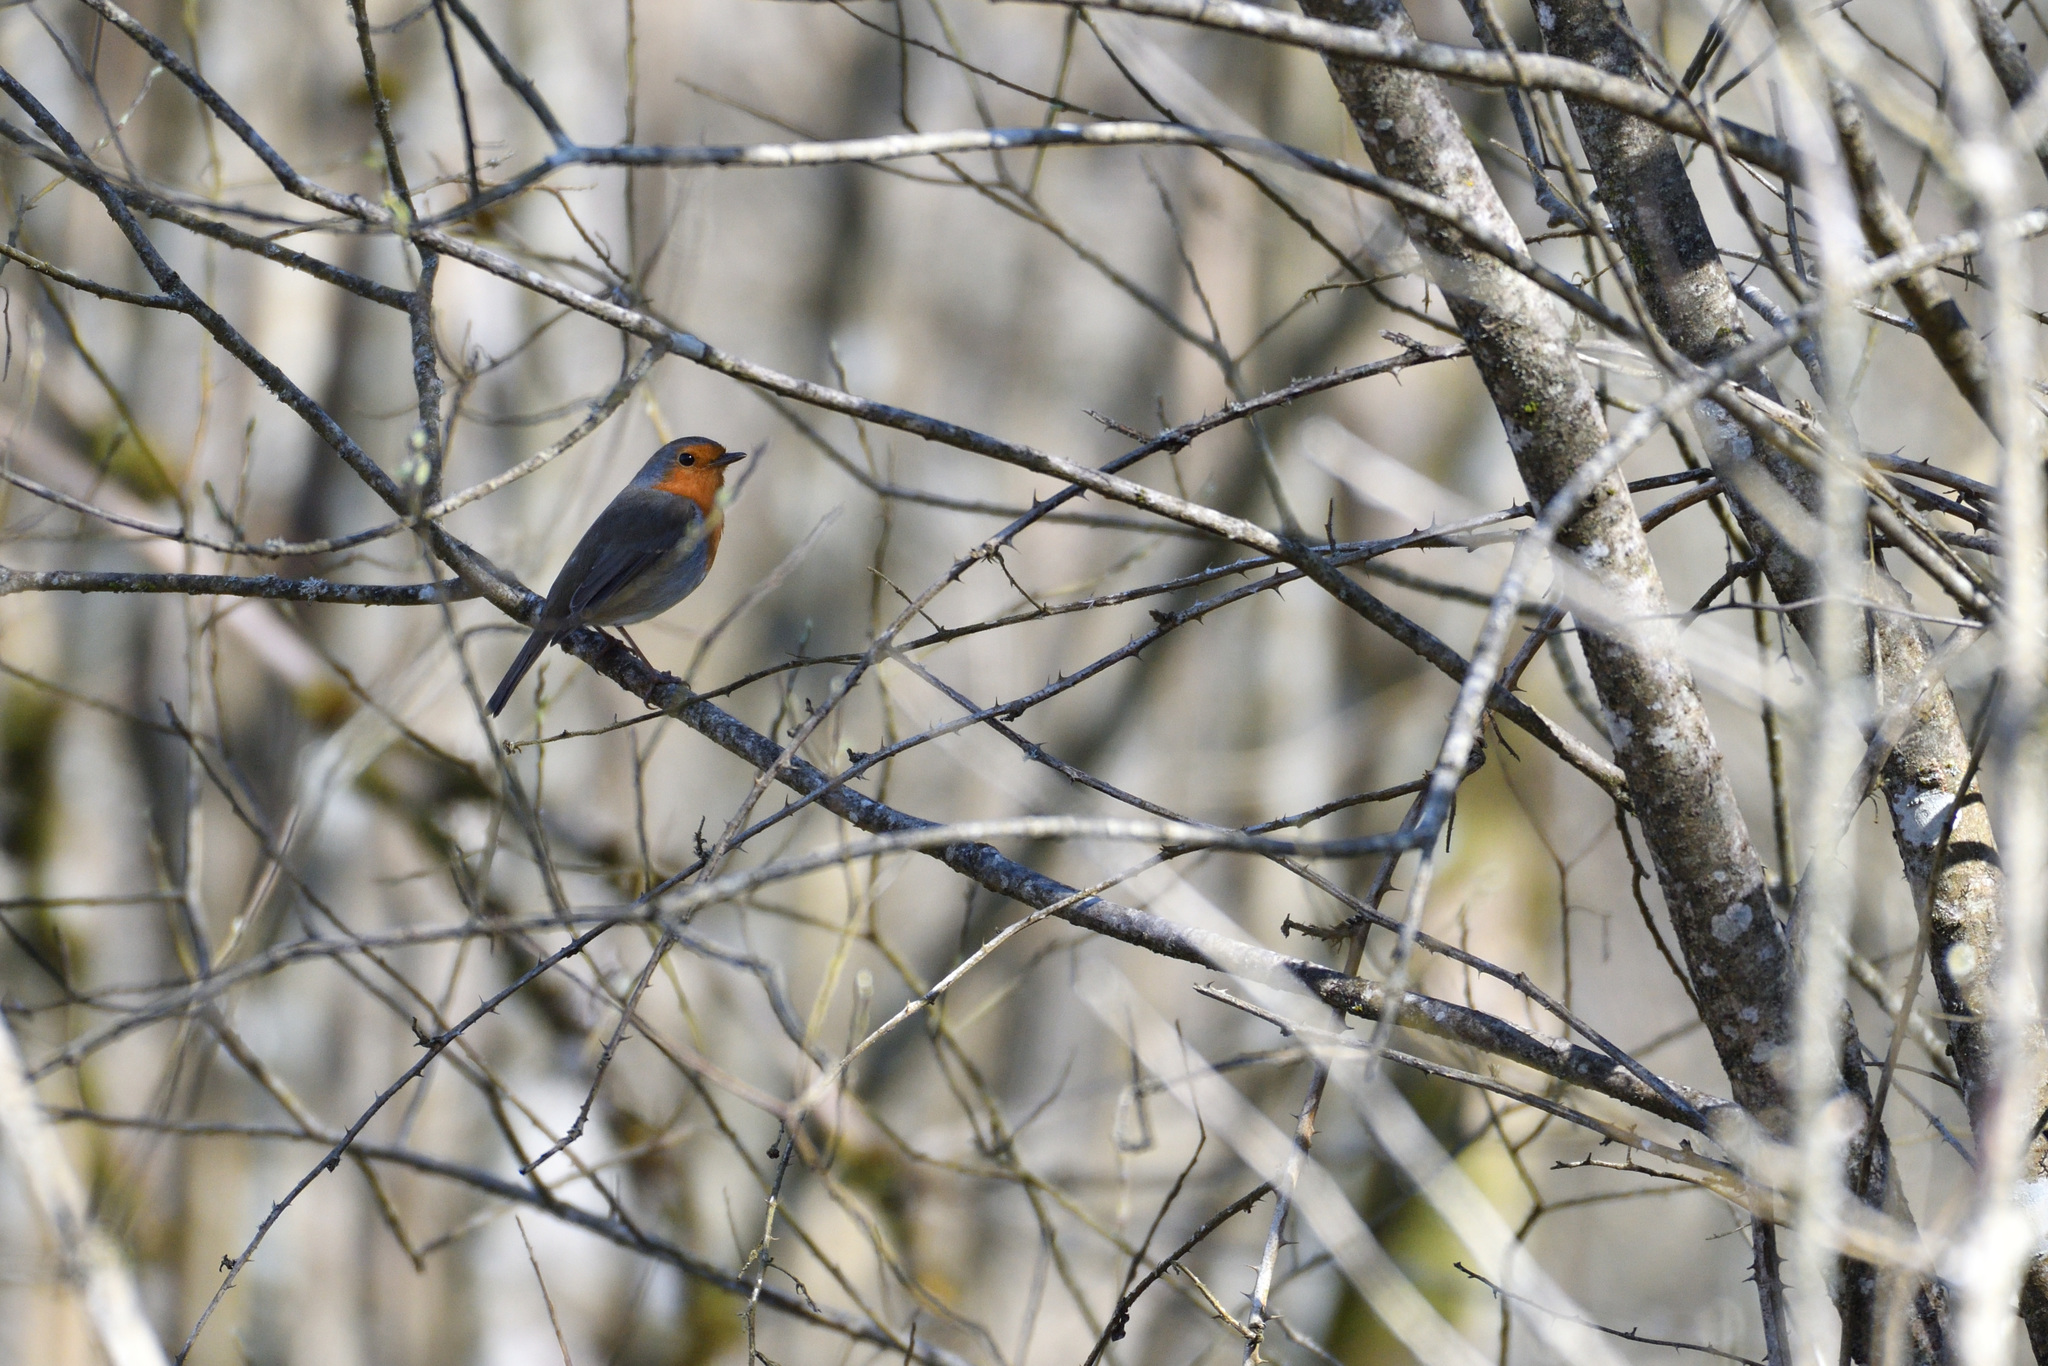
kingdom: Animalia
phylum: Chordata
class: Aves
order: Passeriformes
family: Muscicapidae
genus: Erithacus
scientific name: Erithacus rubecula
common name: European robin
